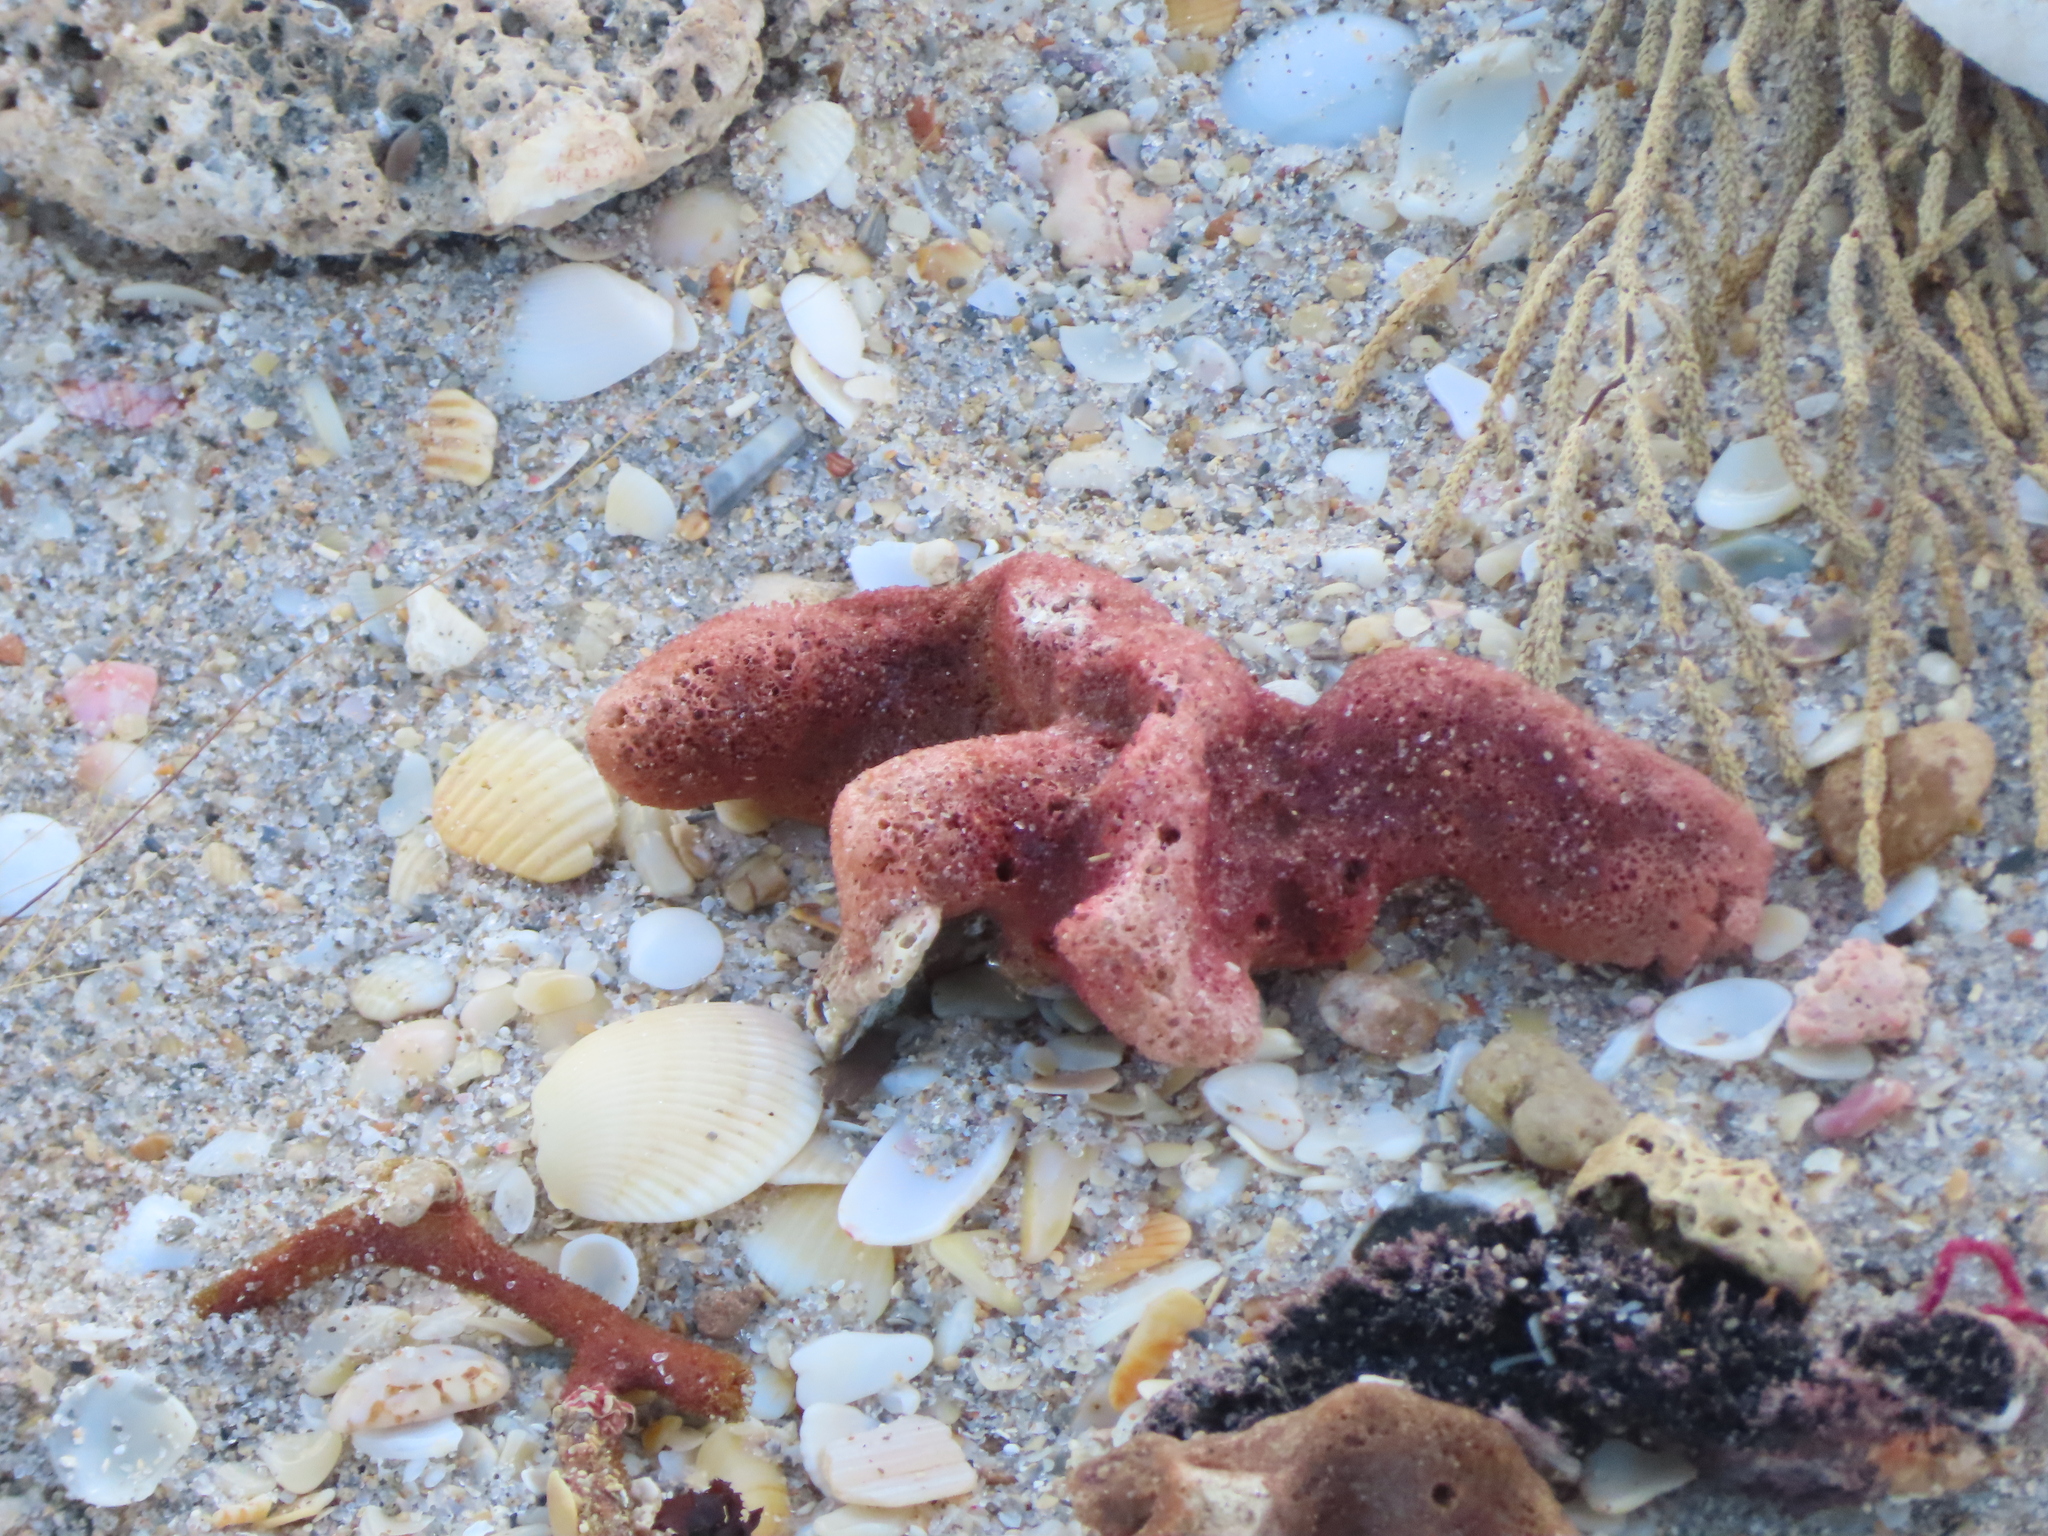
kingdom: Animalia
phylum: Porifera
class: Demospongiae
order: Haplosclerida
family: Niphatidae
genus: Amphimedon
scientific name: Amphimedon compressa
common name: Red sponge
